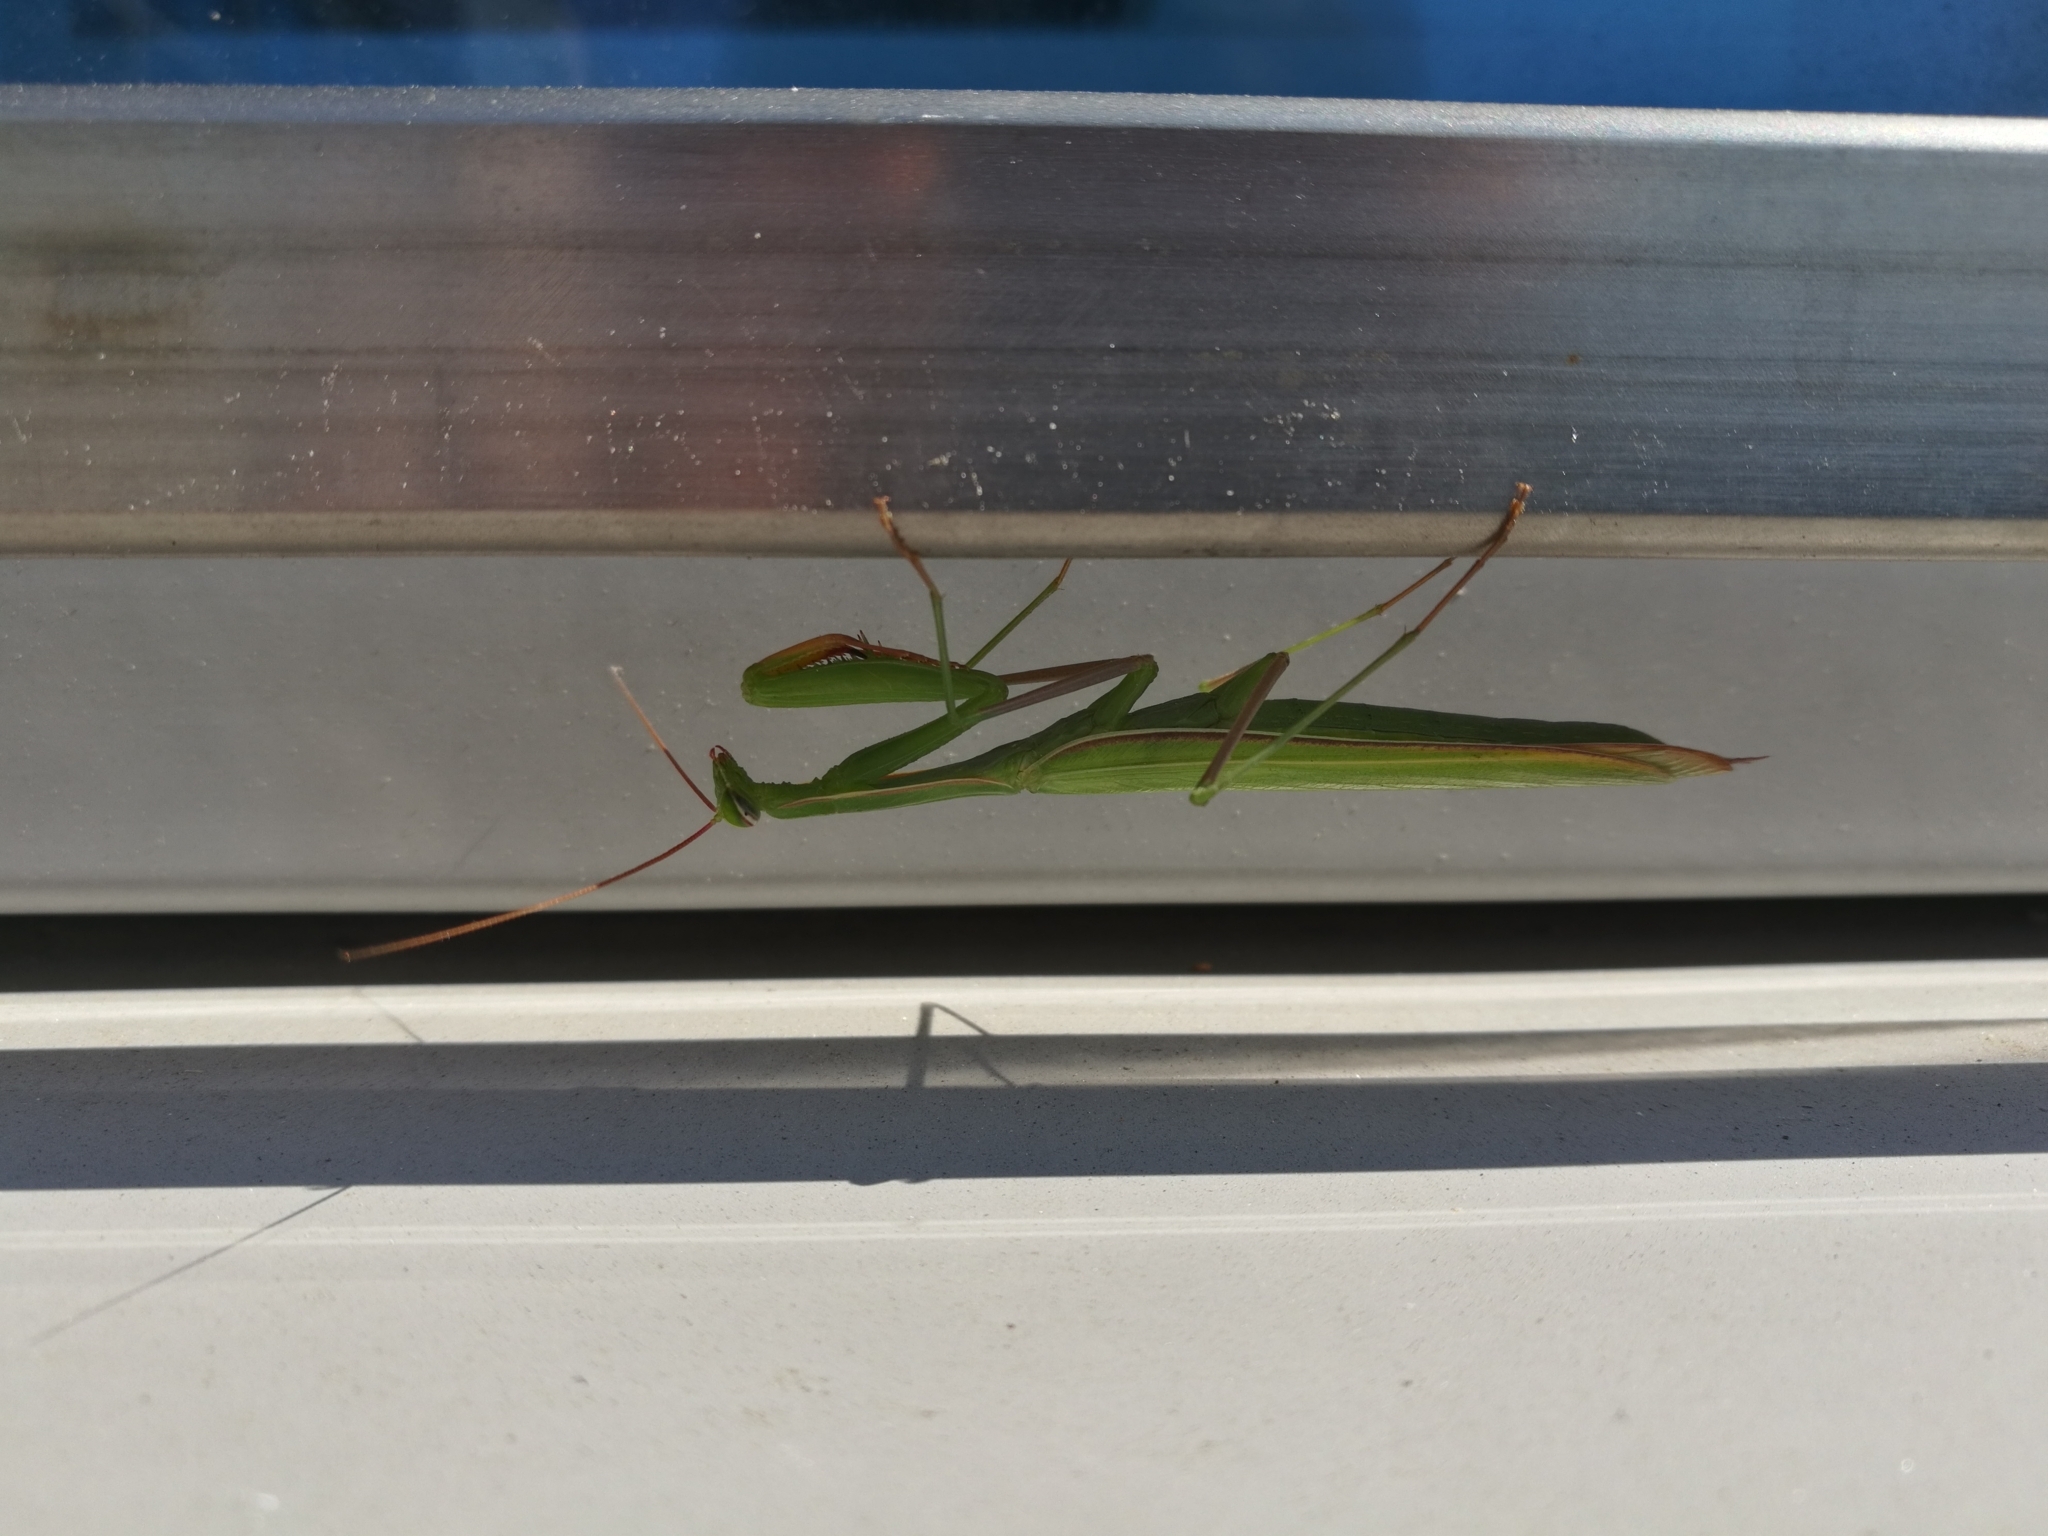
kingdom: Animalia
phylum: Arthropoda
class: Insecta
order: Mantodea
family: Mantidae
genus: Mantis
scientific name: Mantis religiosa
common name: Praying mantis
